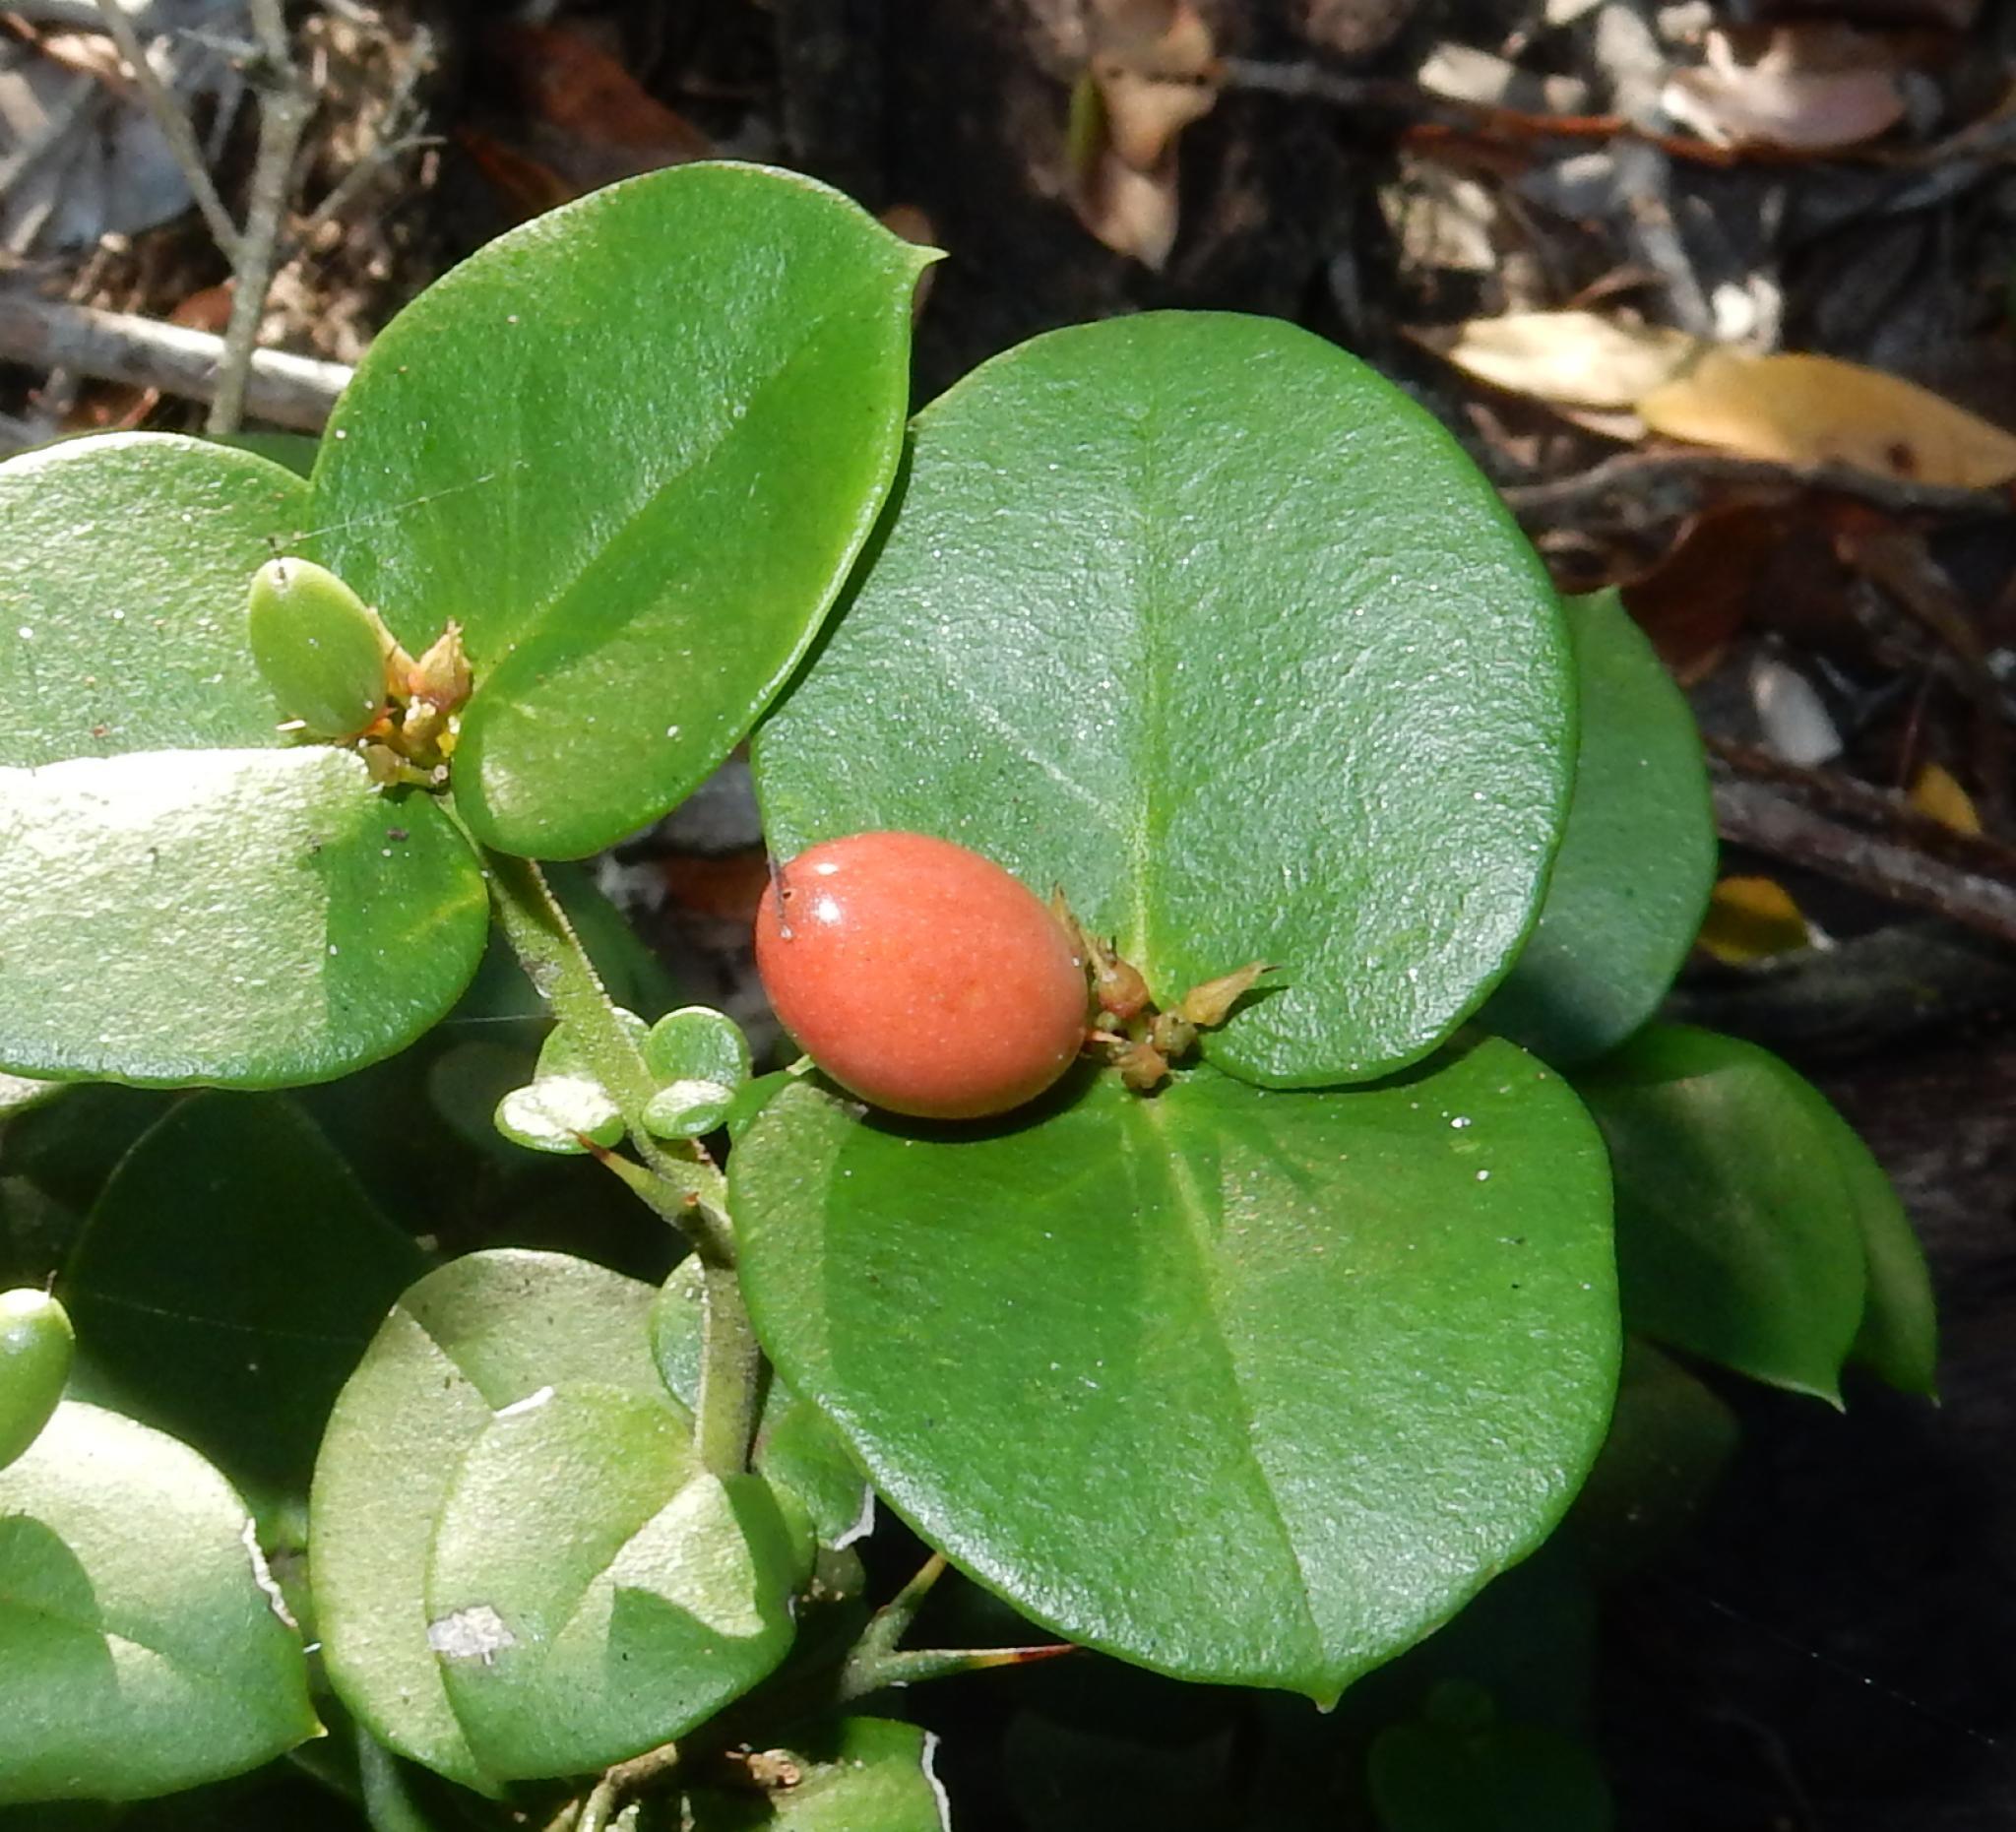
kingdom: Plantae
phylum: Tracheophyta
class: Magnoliopsida
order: Gentianales
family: Apocynaceae
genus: Carissa
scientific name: Carissa bispinosa
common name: Forest num-num
